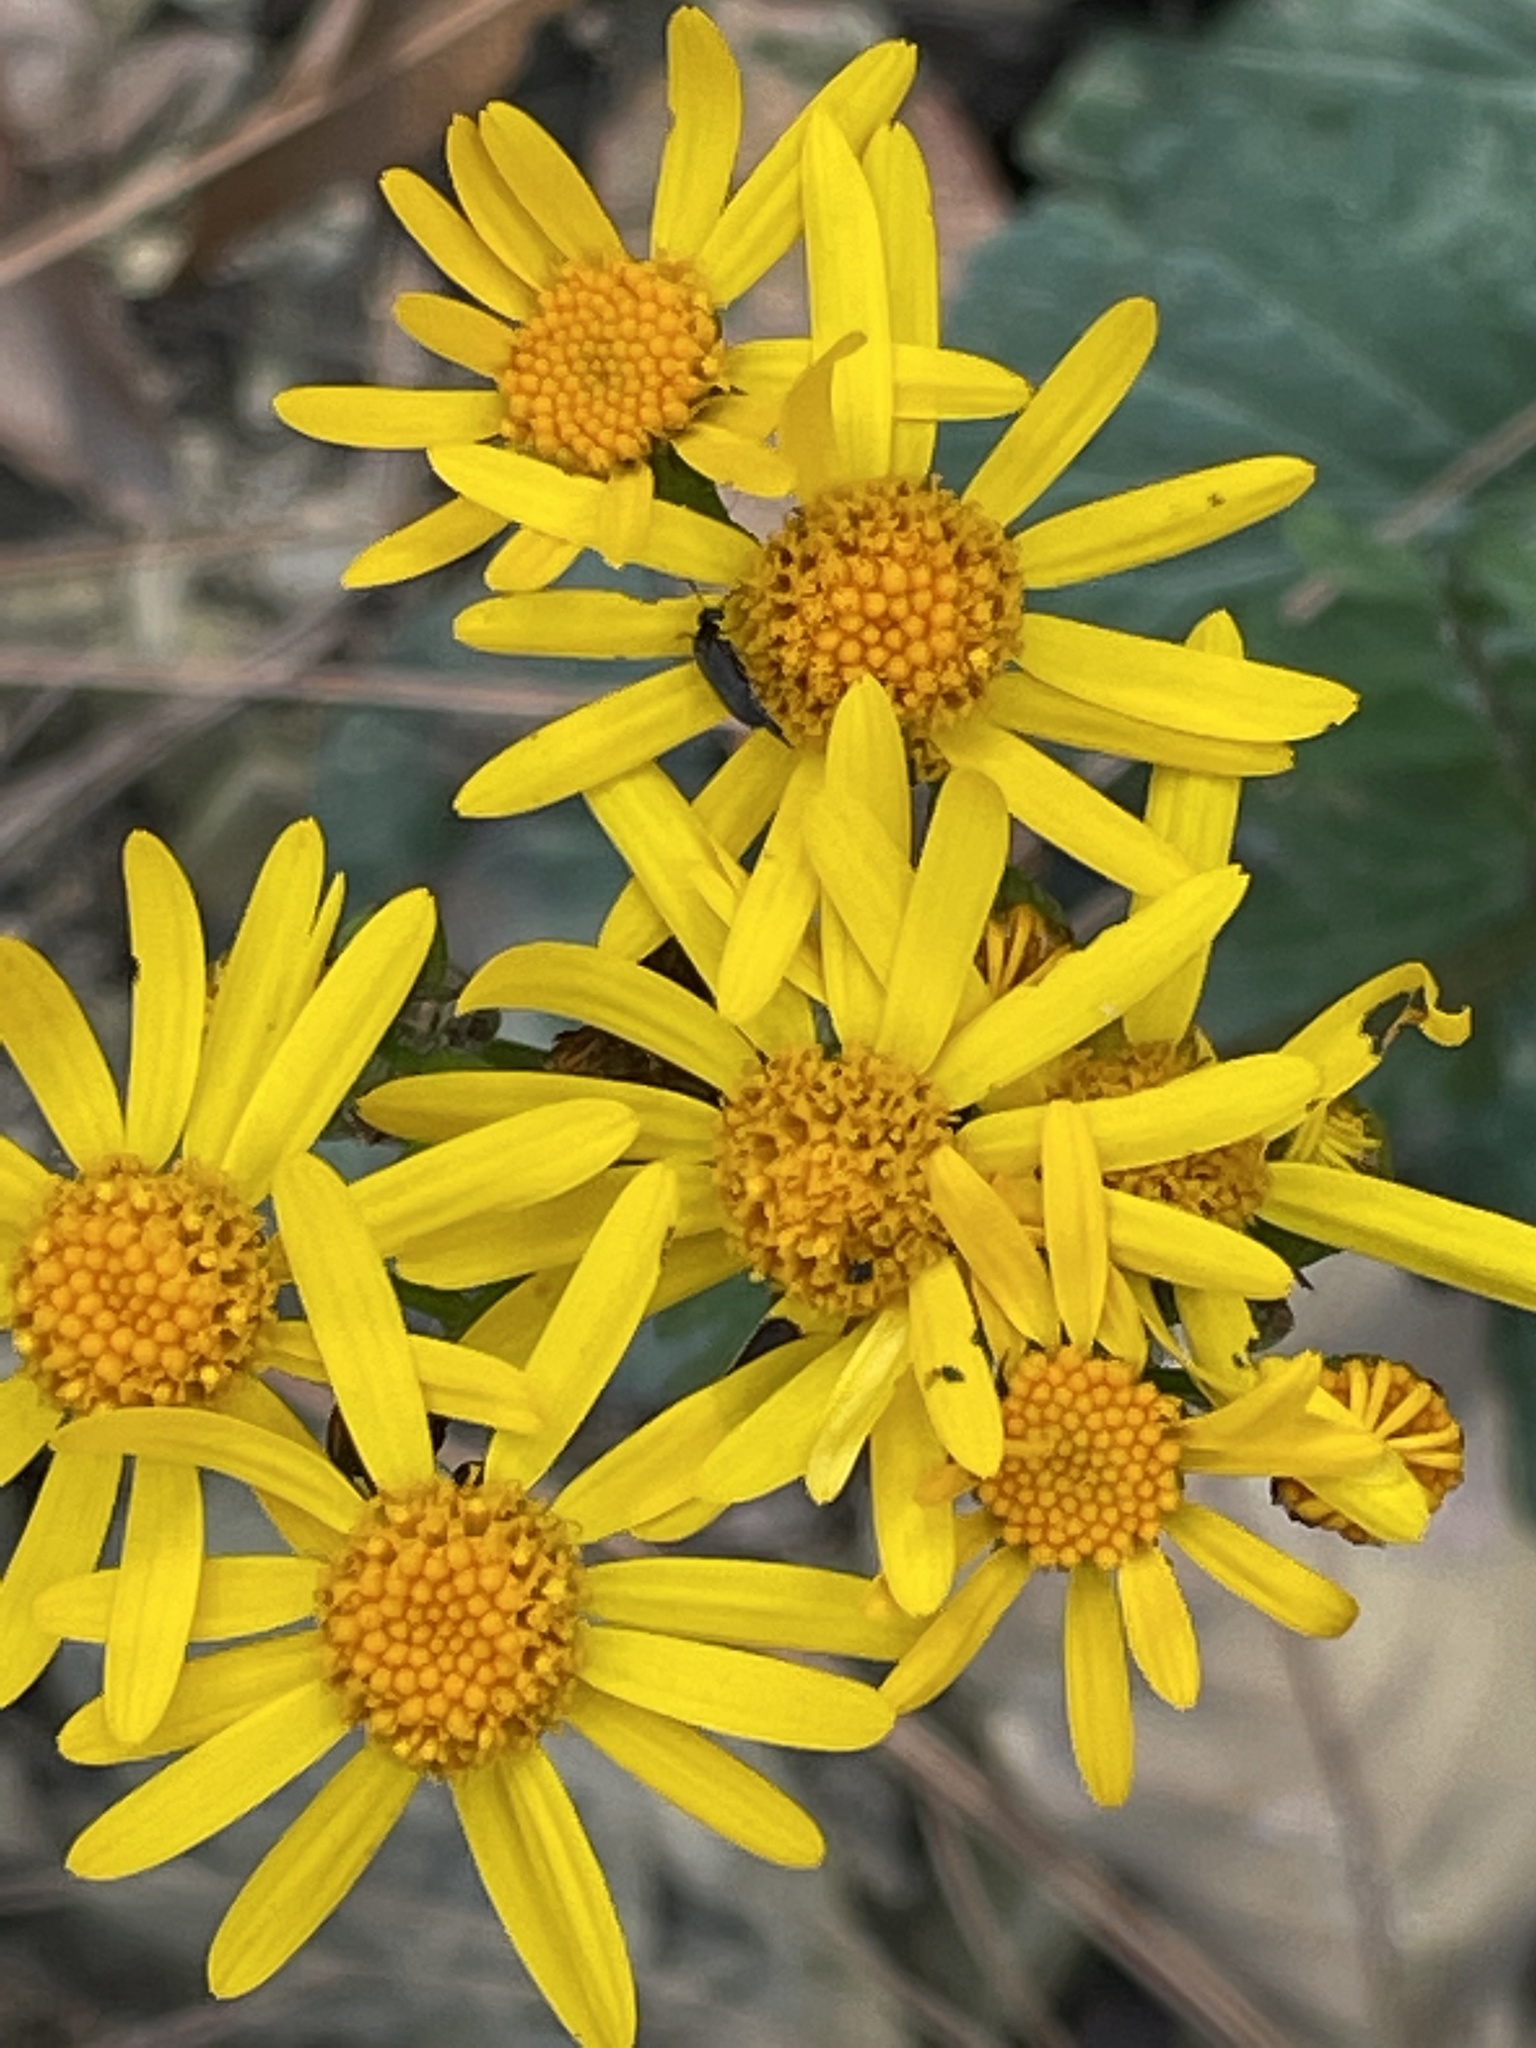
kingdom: Plantae
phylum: Tracheophyta
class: Magnoliopsida
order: Asterales
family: Asteraceae
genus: Packera
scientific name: Packera coahuilensis
